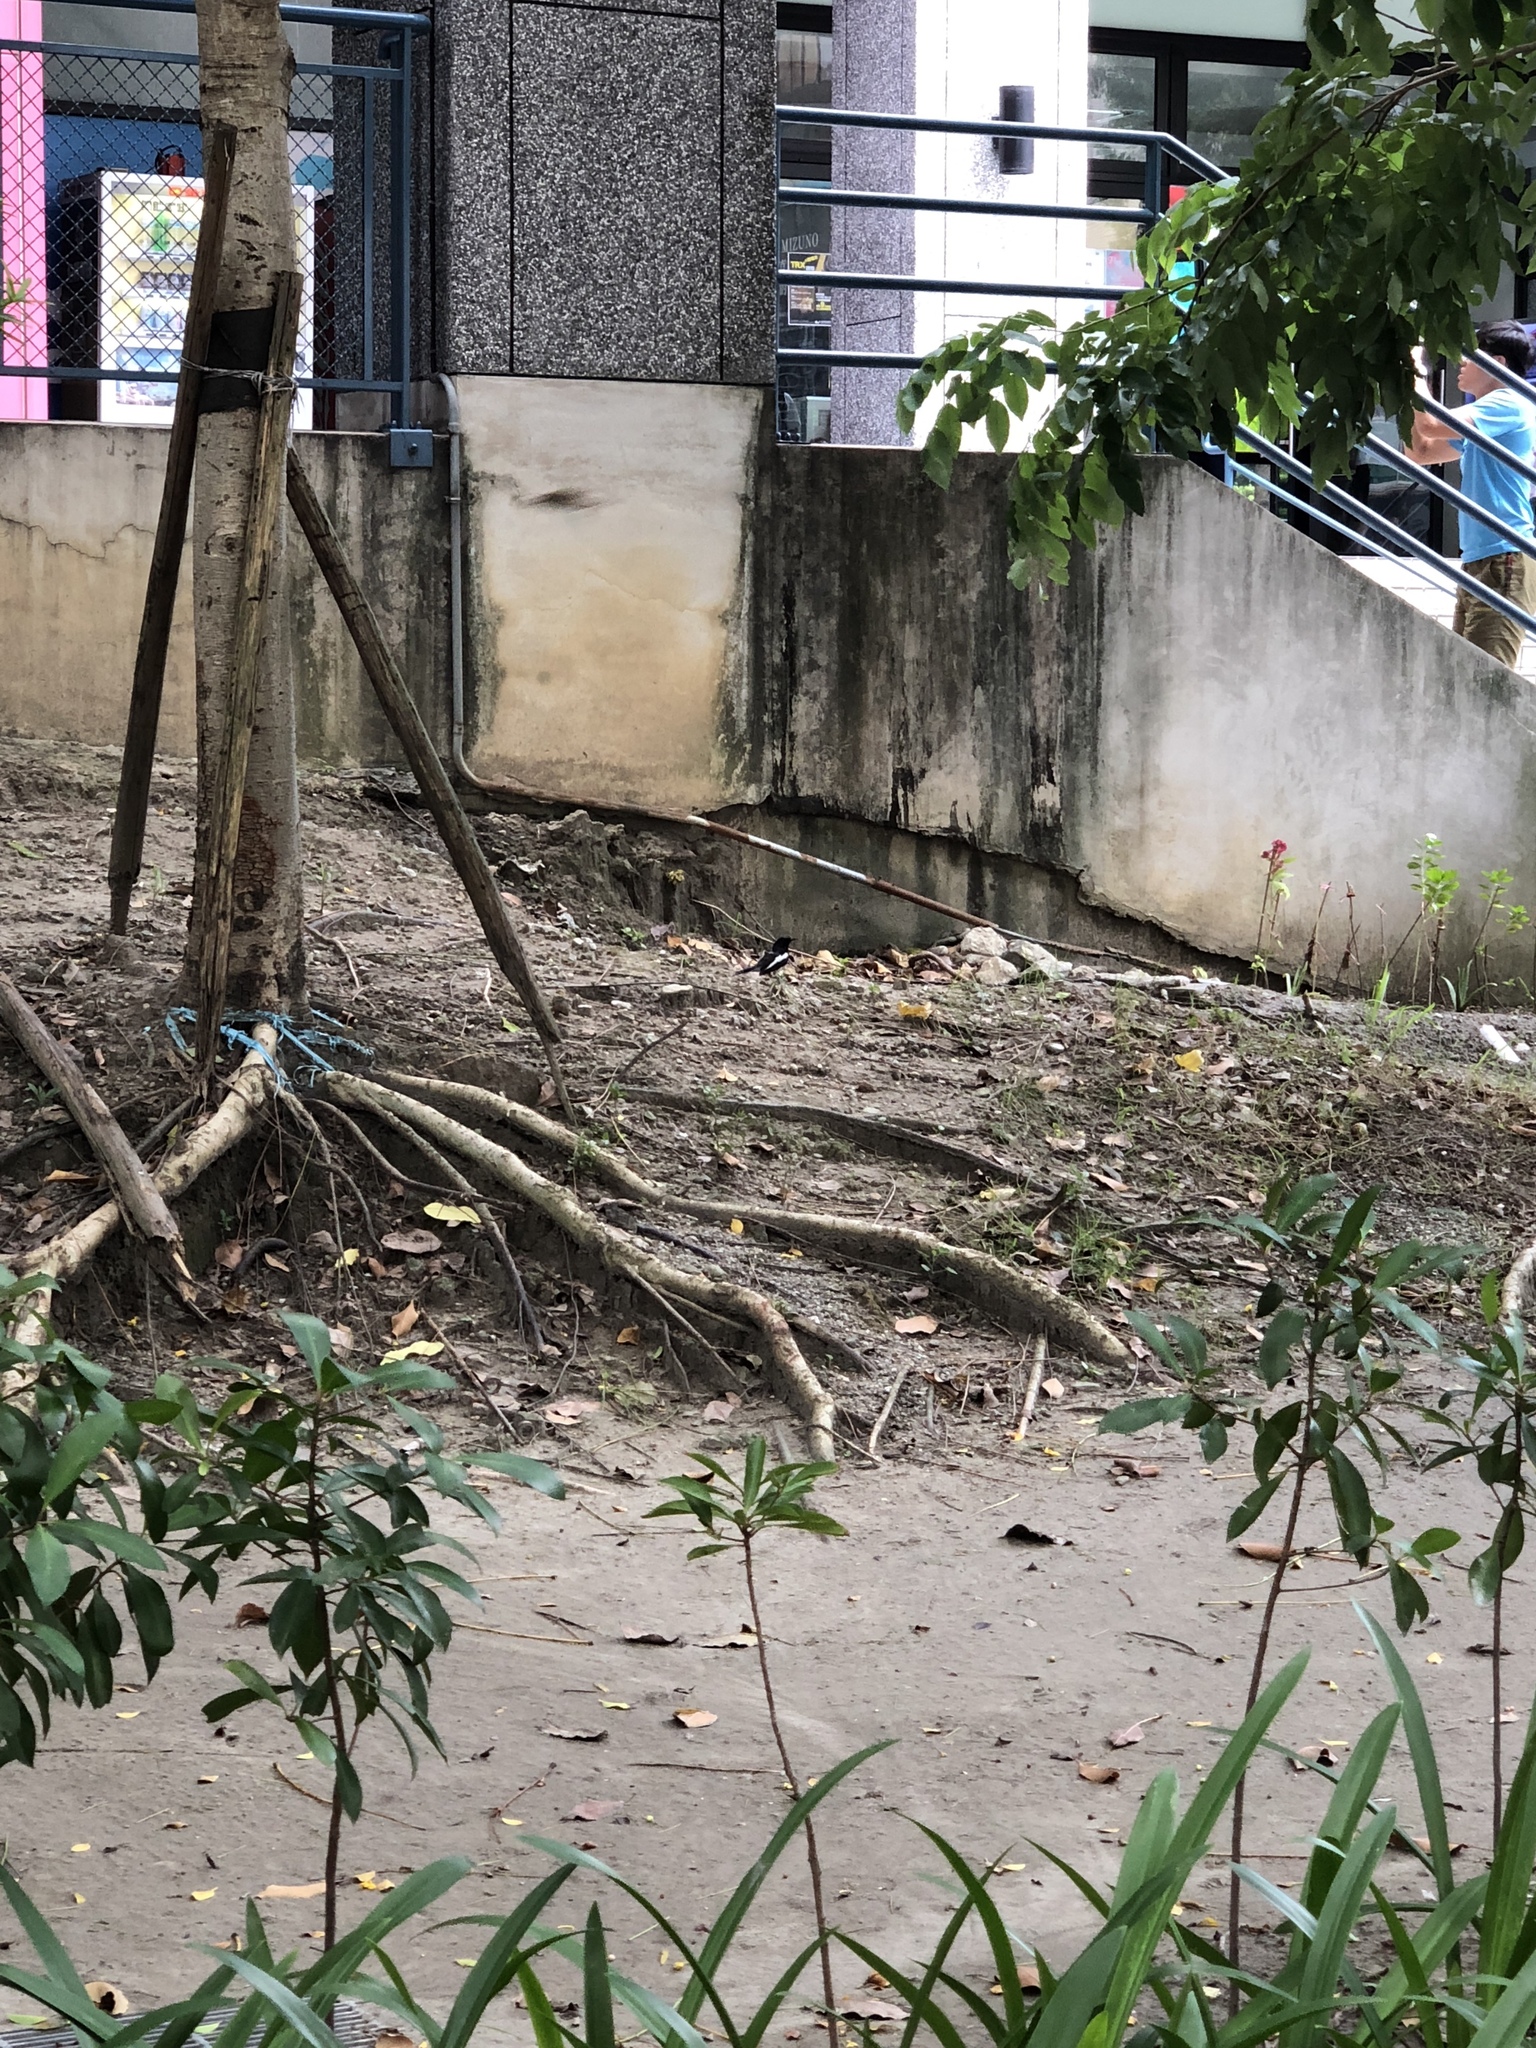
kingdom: Animalia
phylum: Chordata
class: Aves
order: Passeriformes
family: Muscicapidae
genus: Copsychus
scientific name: Copsychus saularis
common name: Oriental magpie-robin
